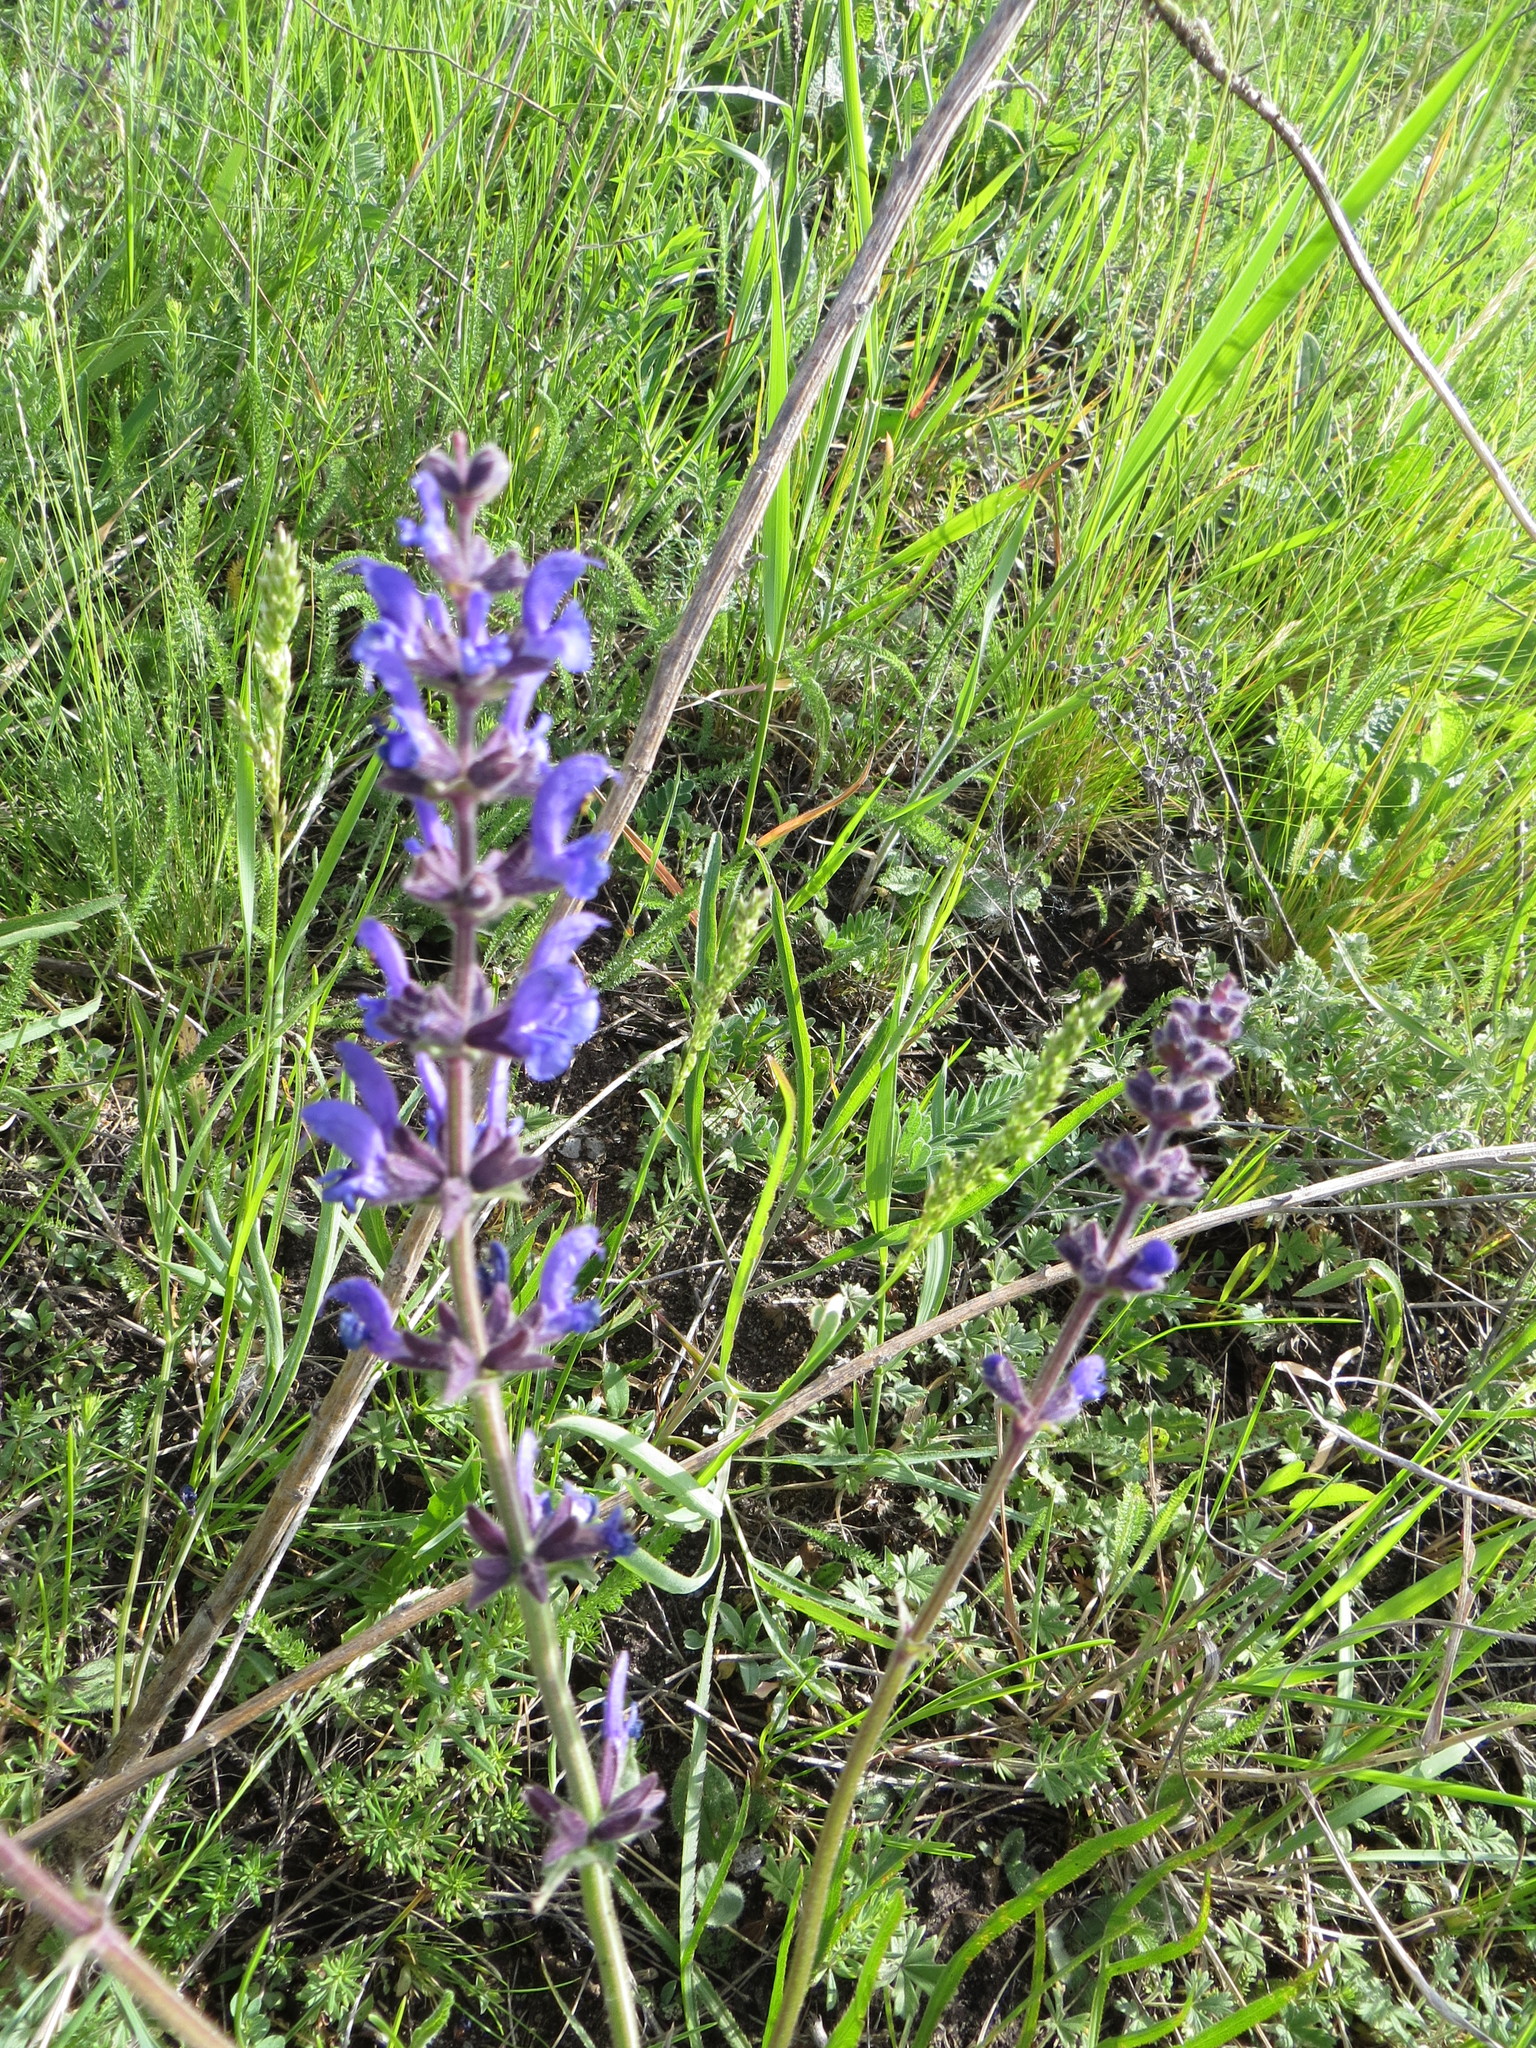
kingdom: Plantae
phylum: Tracheophyta
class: Magnoliopsida
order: Lamiales
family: Lamiaceae
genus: Salvia
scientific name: Salvia dumetorum
